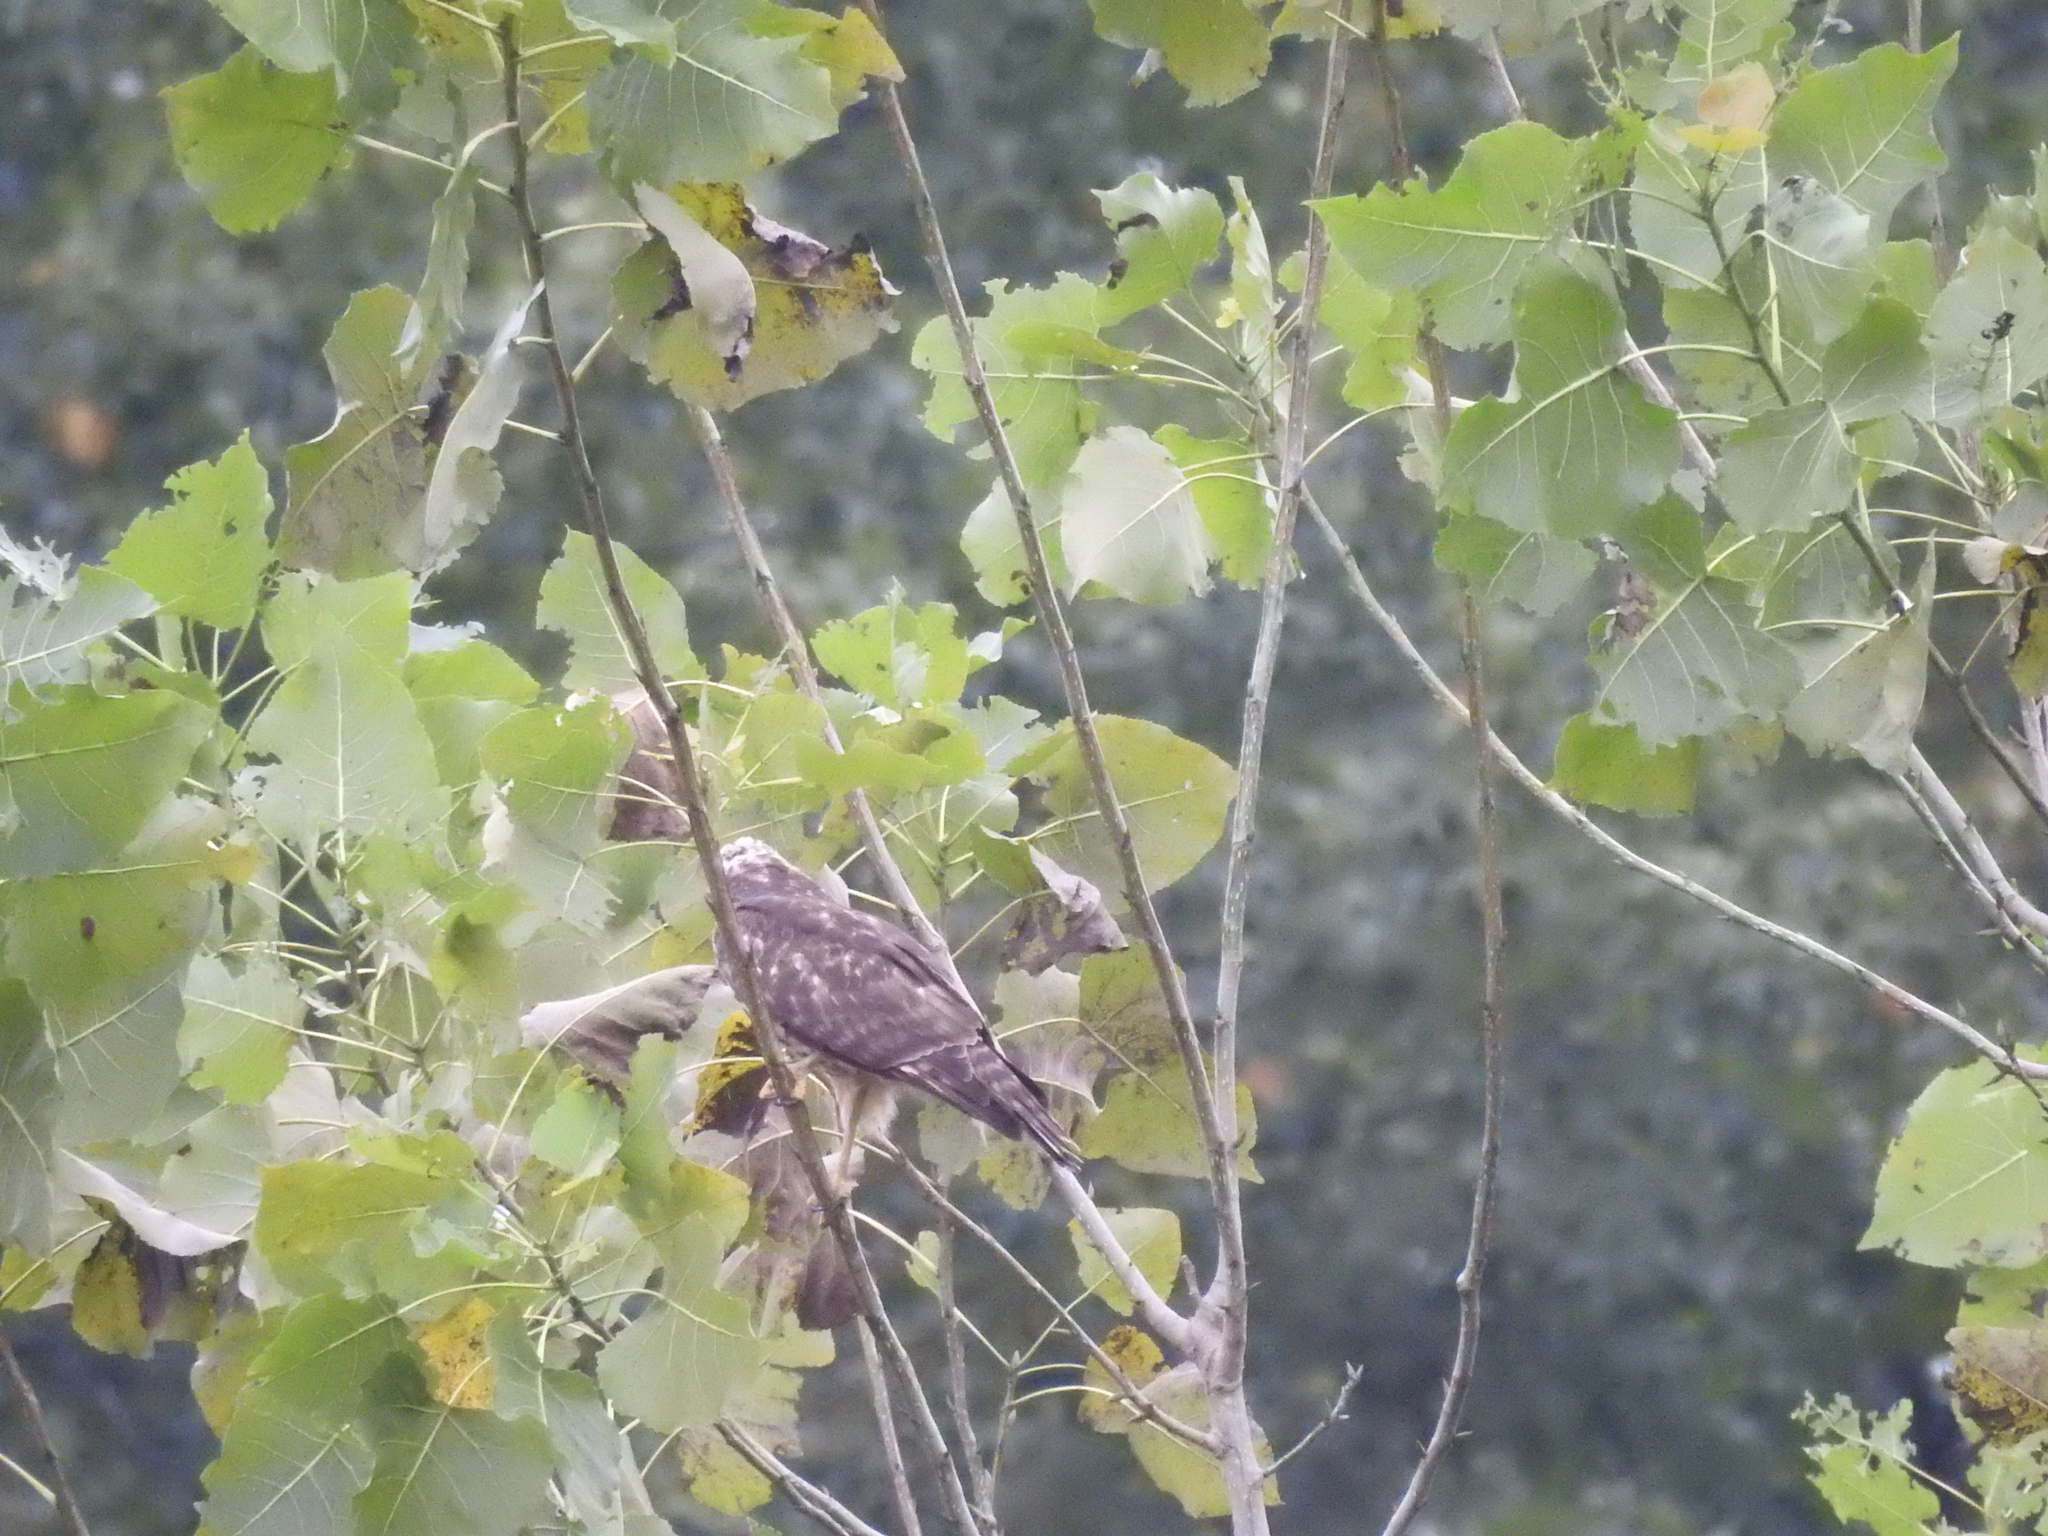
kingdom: Animalia
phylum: Chordata
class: Aves
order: Accipitriformes
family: Accipitridae
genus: Buteo
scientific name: Buteo lineatus
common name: Red-shouldered hawk
